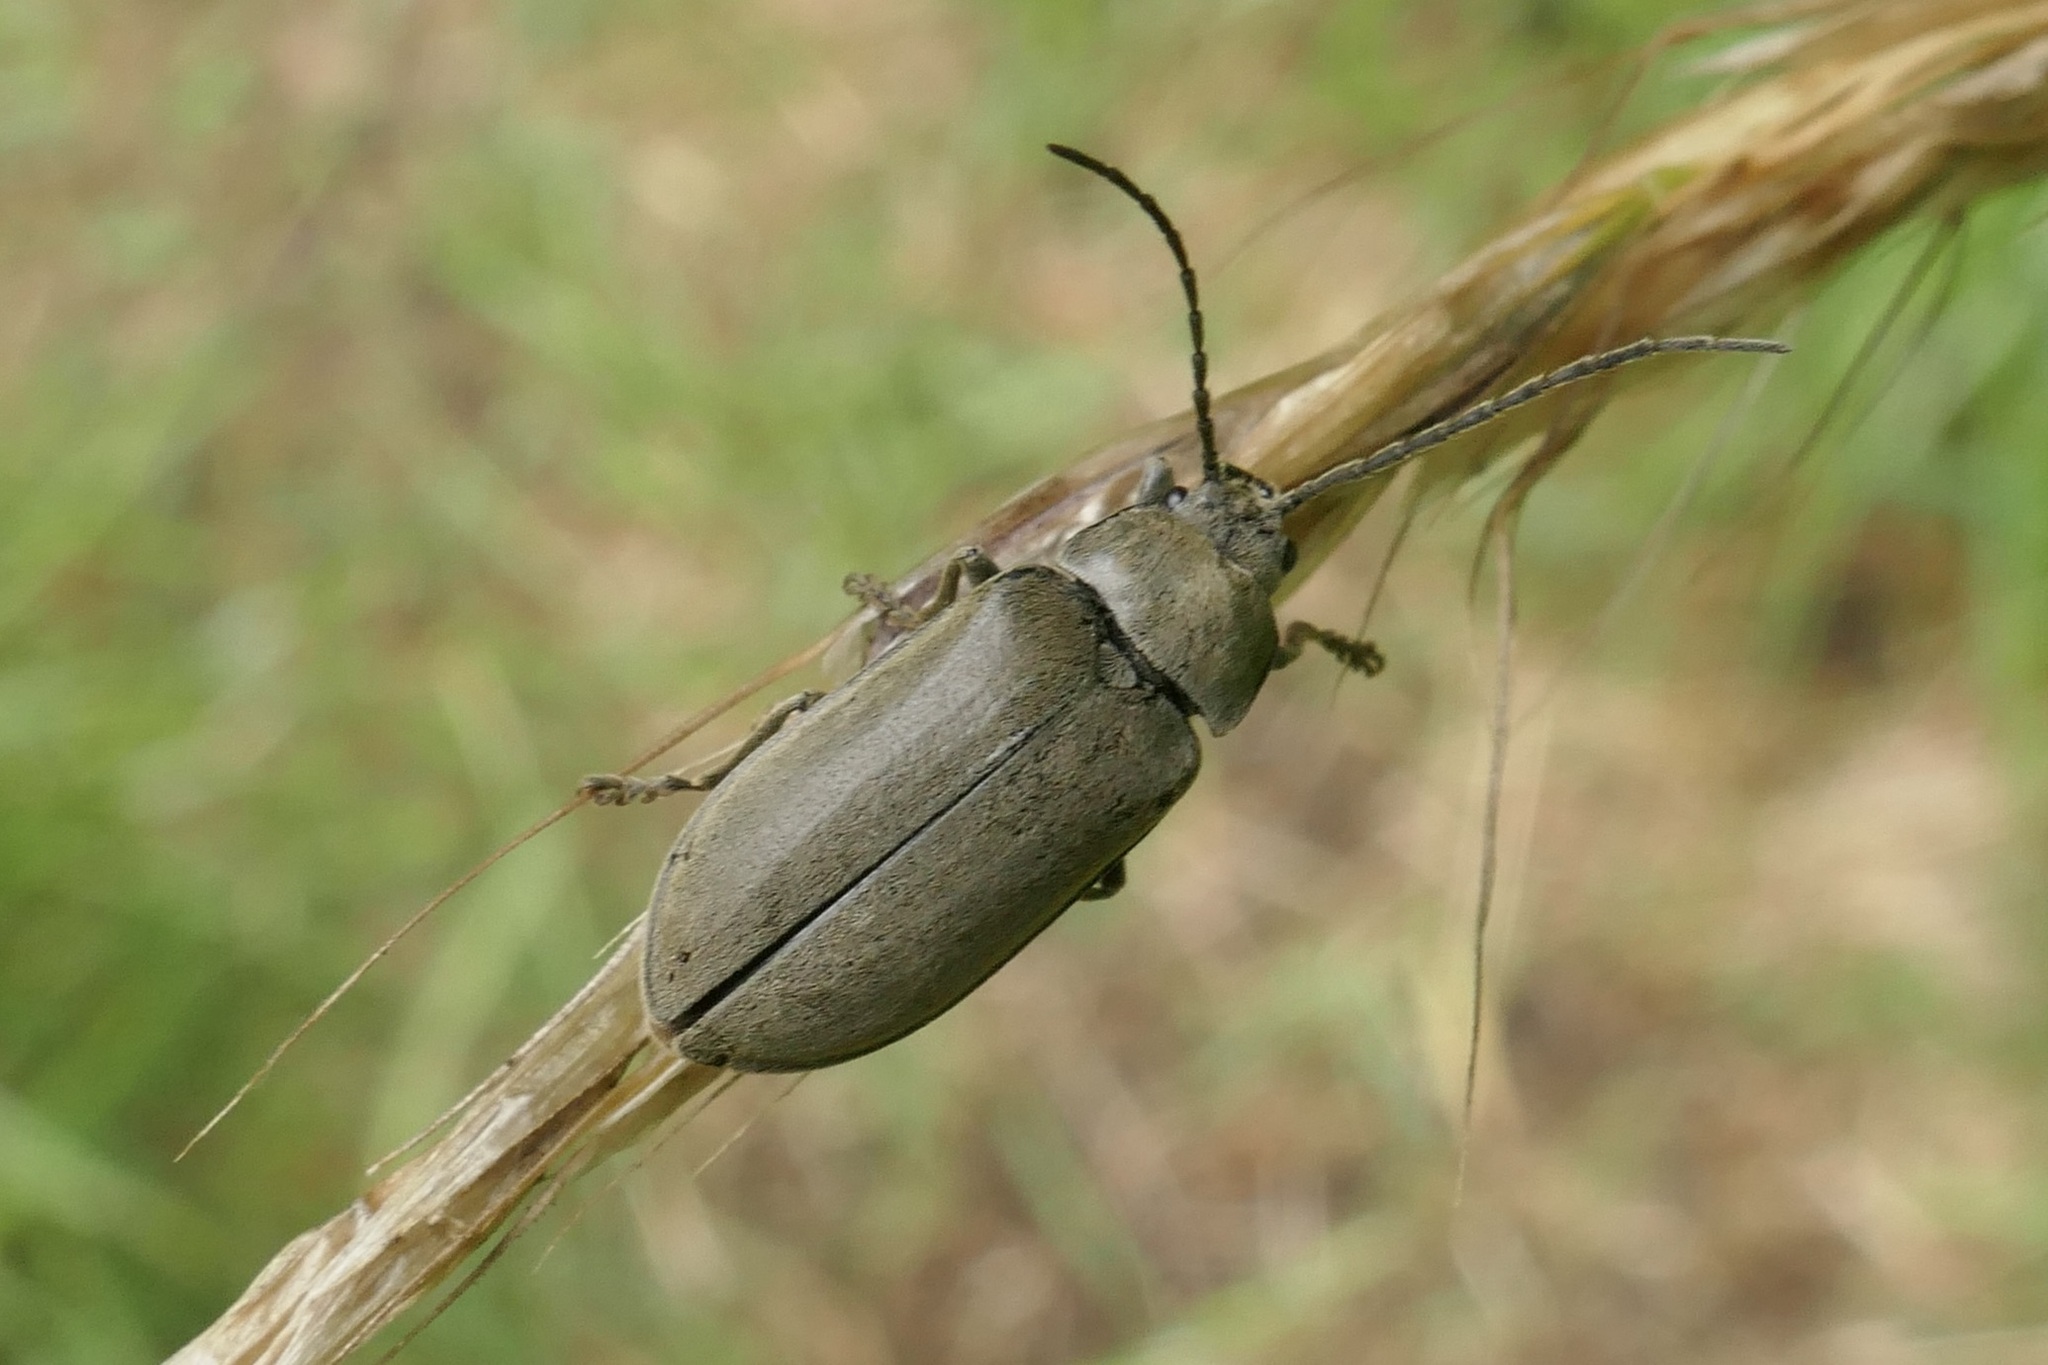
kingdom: Animalia
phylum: Arthropoda
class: Insecta
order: Coleoptera
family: Dascillidae
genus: Dascillus
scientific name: Dascillus cervinus
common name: Orchid beetle
